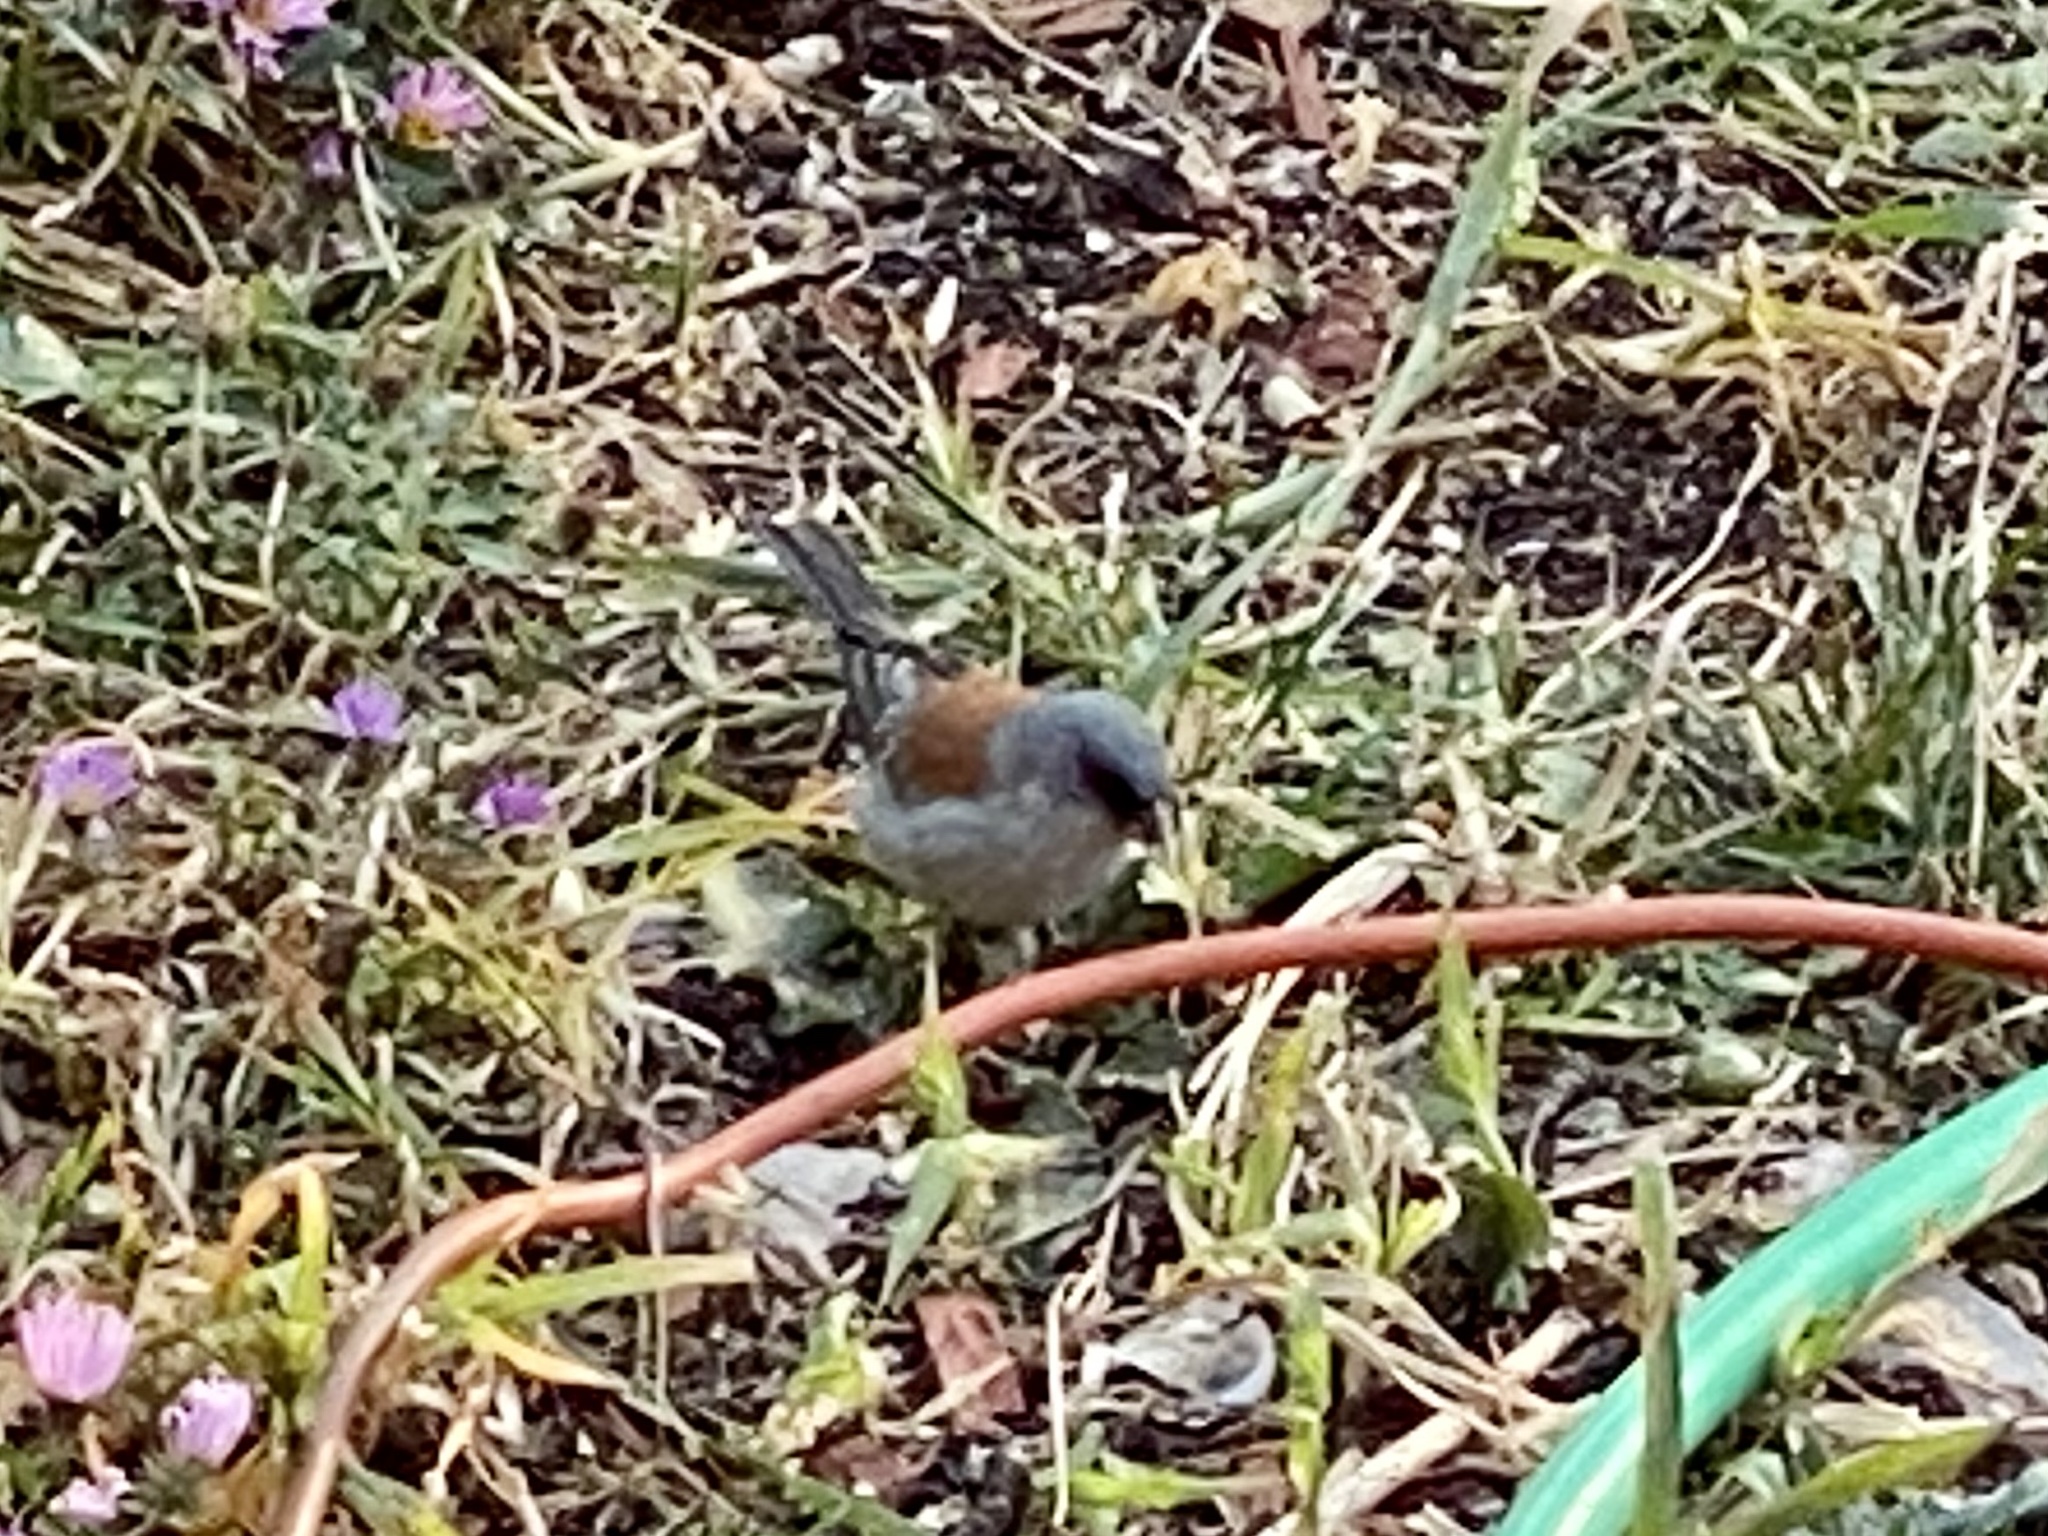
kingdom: Animalia
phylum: Chordata
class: Aves
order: Passeriformes
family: Passerellidae
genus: Junco
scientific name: Junco hyemalis
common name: Dark-eyed junco
